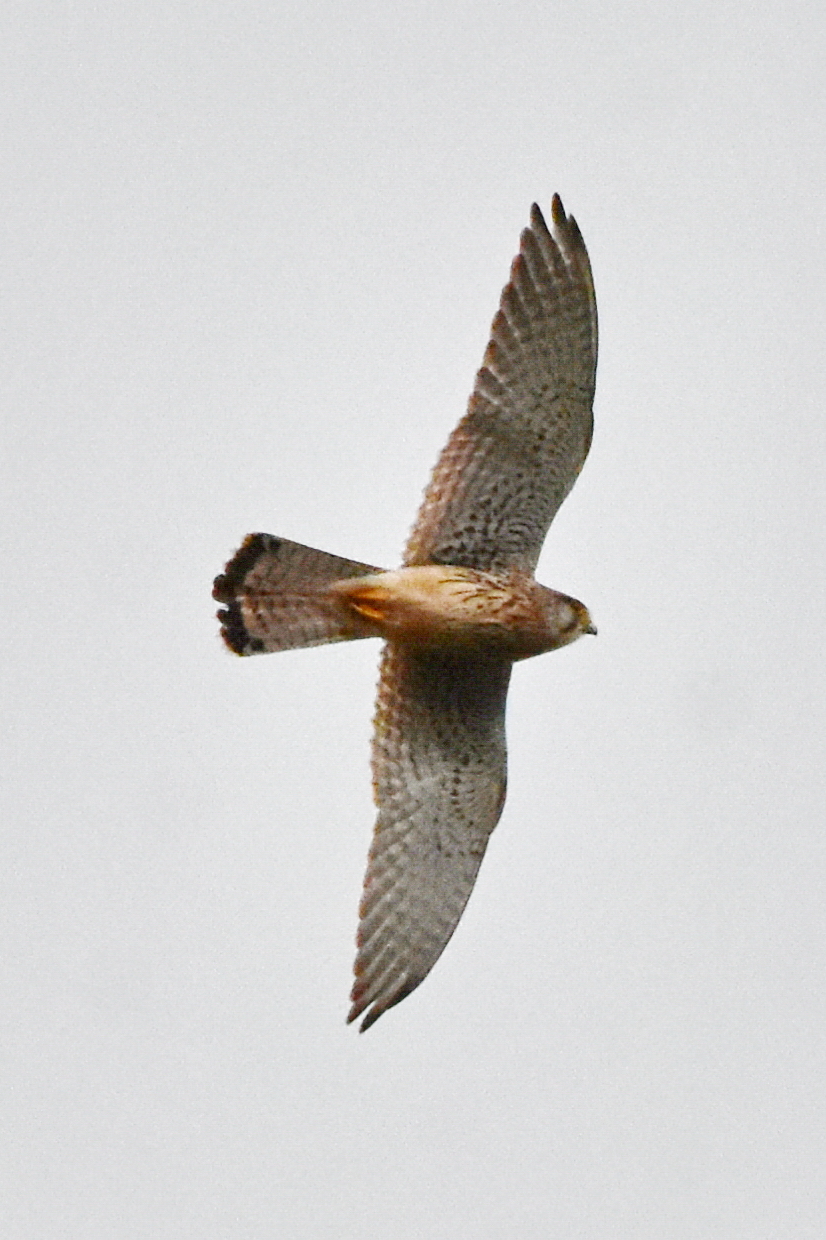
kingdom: Animalia
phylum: Chordata
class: Aves
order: Falconiformes
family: Falconidae
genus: Falco
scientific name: Falco tinnunculus
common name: Common kestrel
